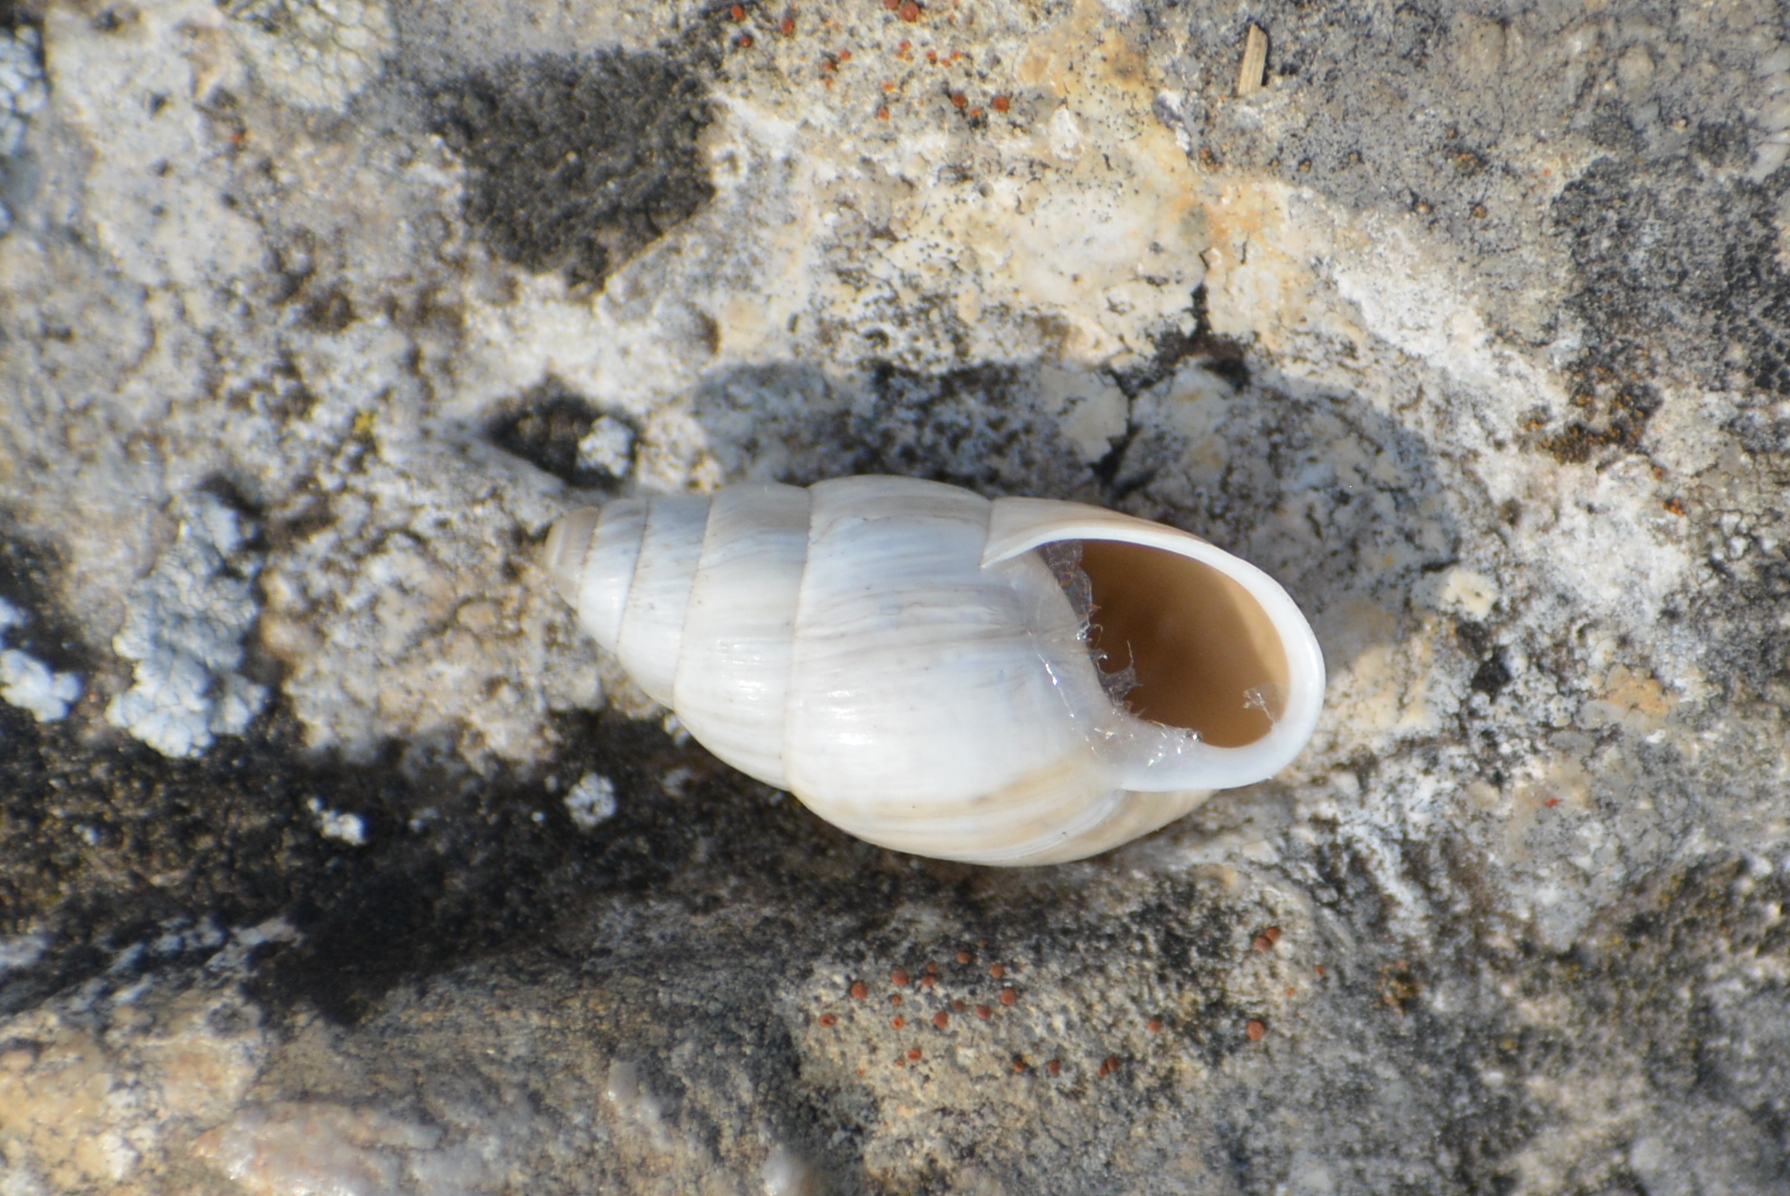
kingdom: Animalia
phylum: Mollusca
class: Gastropoda
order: Stylommatophora
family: Enidae
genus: Zebrina
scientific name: Zebrina detrita
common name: Large bulin
